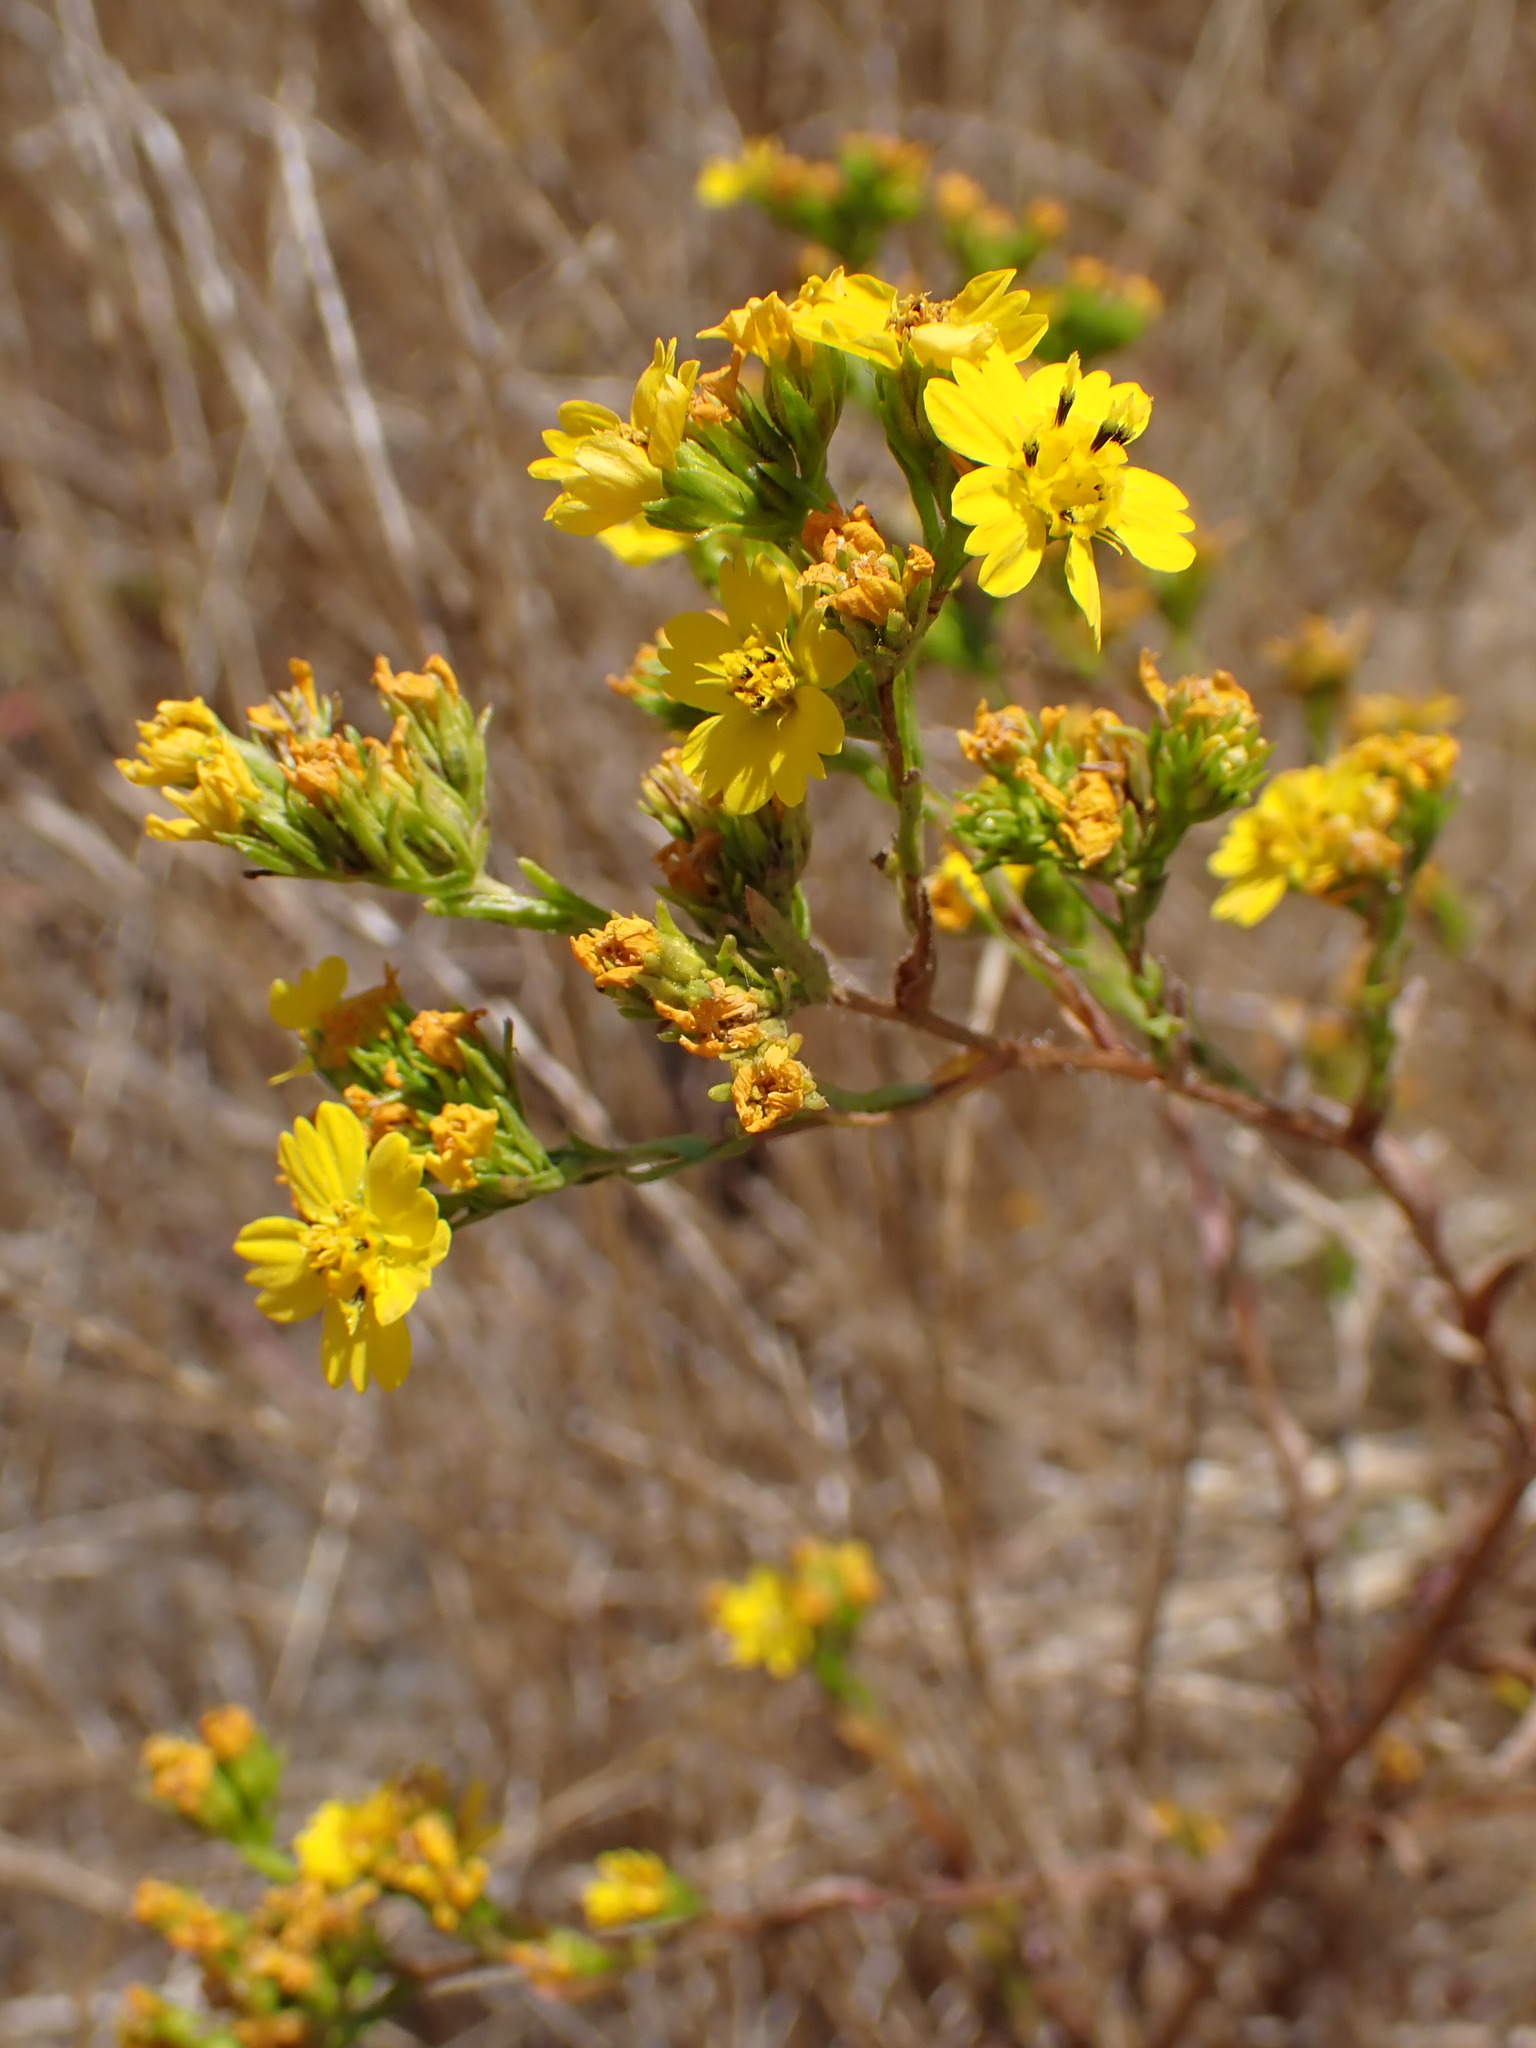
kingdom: Plantae
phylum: Tracheophyta
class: Magnoliopsida
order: Asterales
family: Asteraceae
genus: Deinandra
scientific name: Deinandra fasciculata
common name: Clustered tarweed
